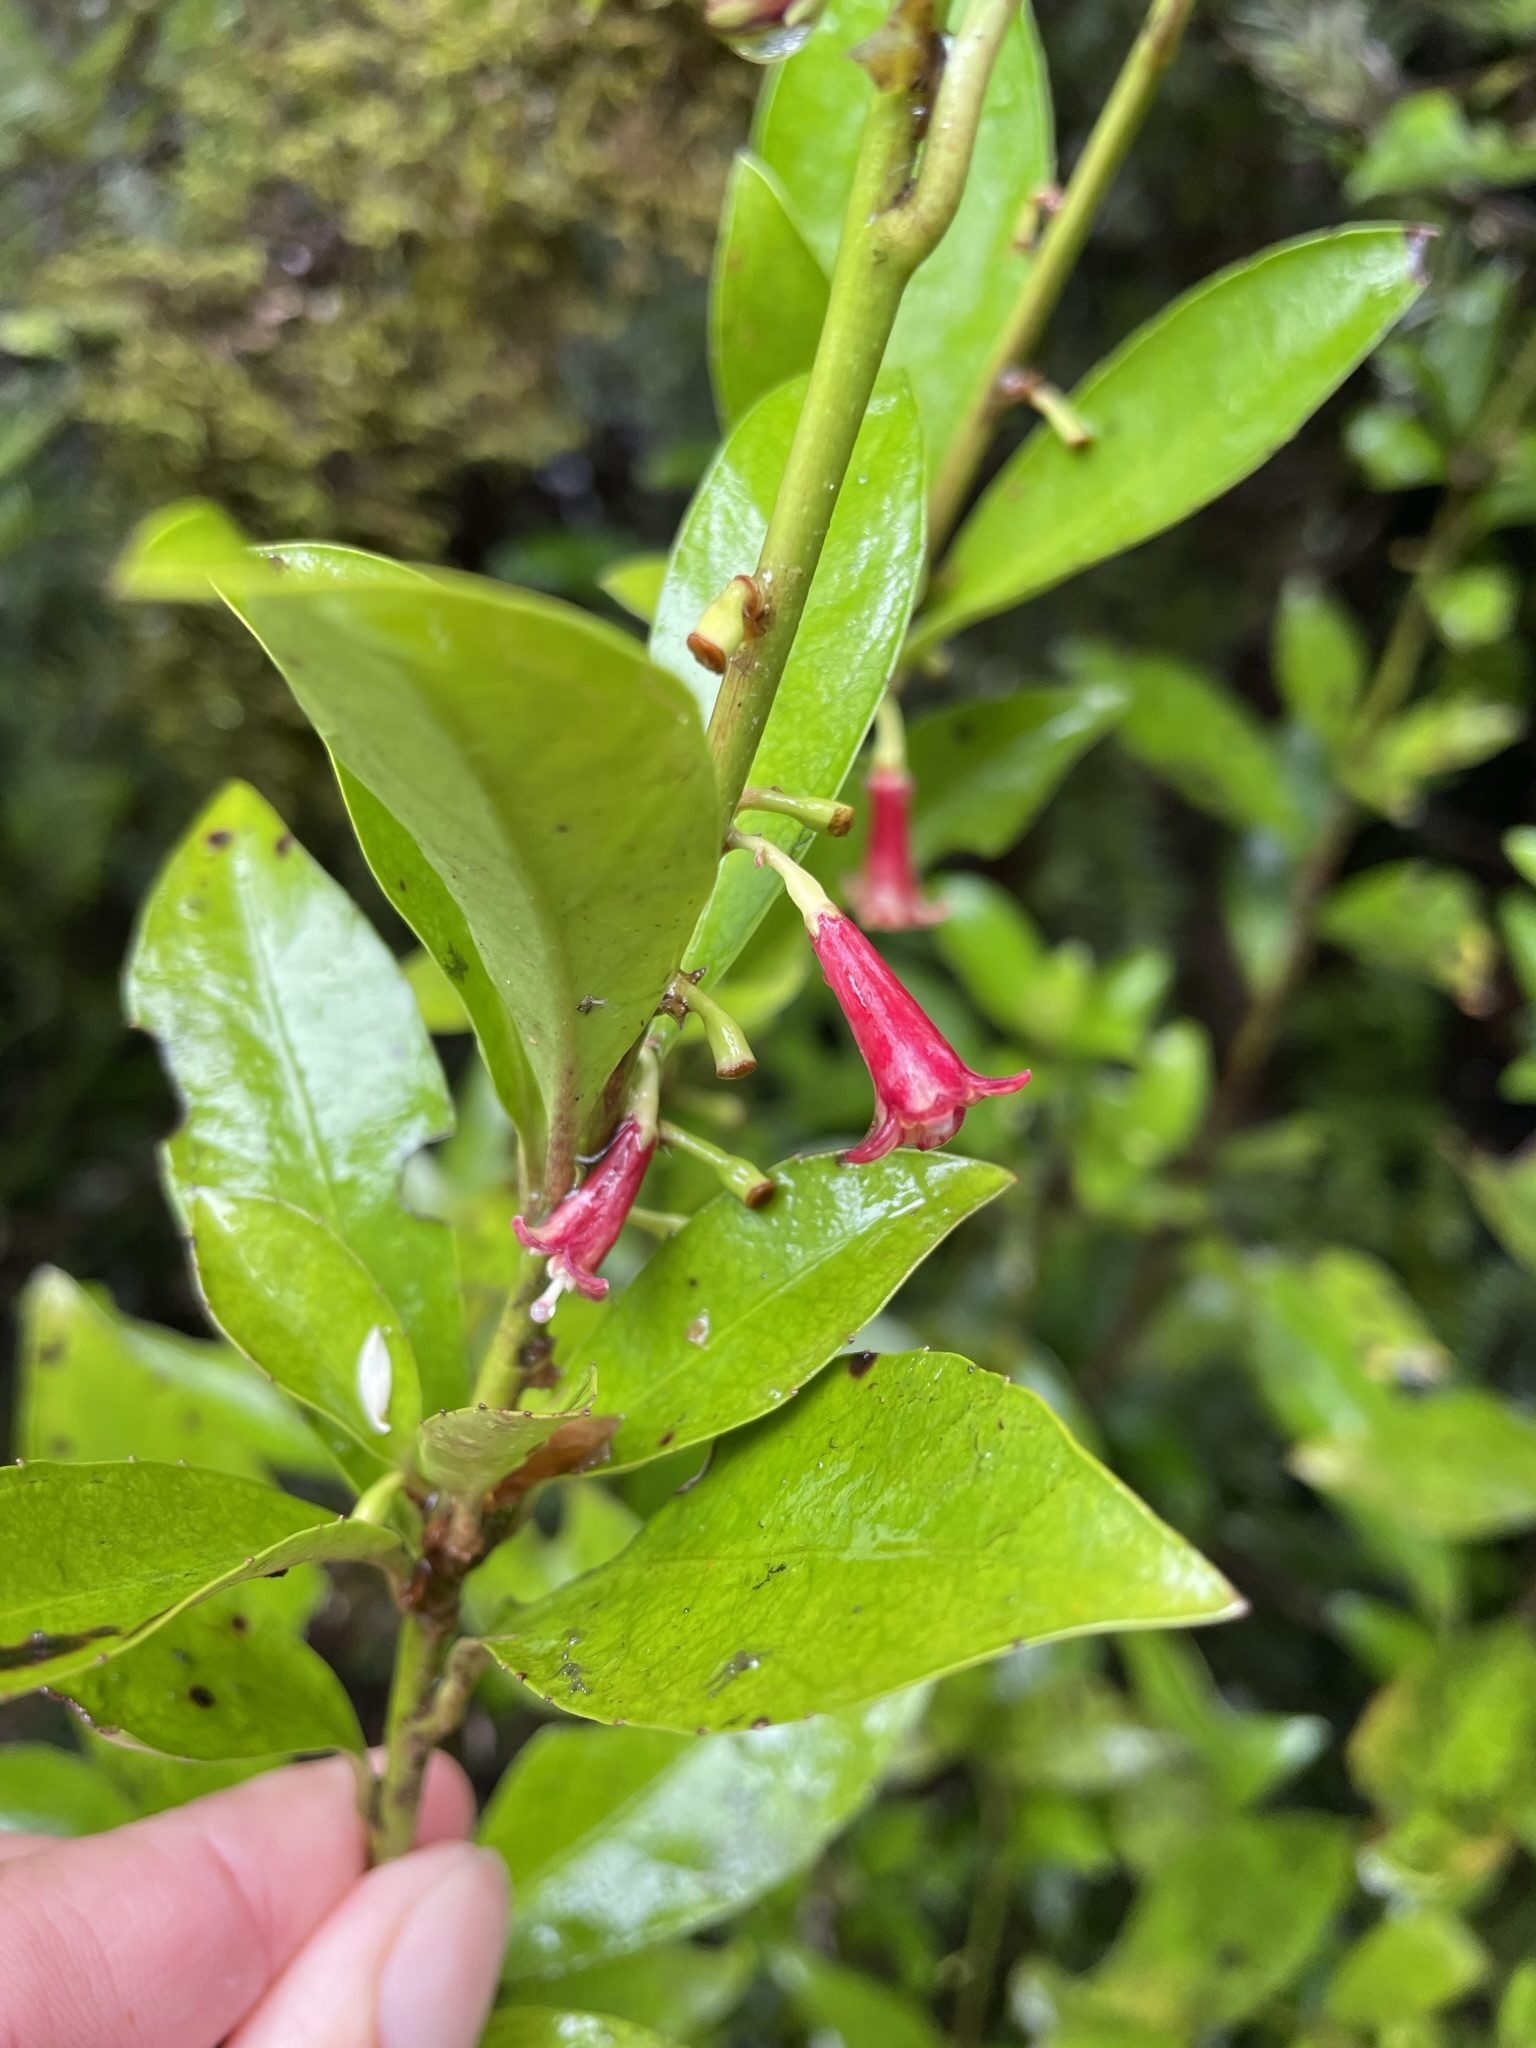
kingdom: Plantae
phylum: Tracheophyta
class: Magnoliopsida
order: Asterales
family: Alseuosmiaceae
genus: Alseuosmia
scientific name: Alseuosmia turneri
